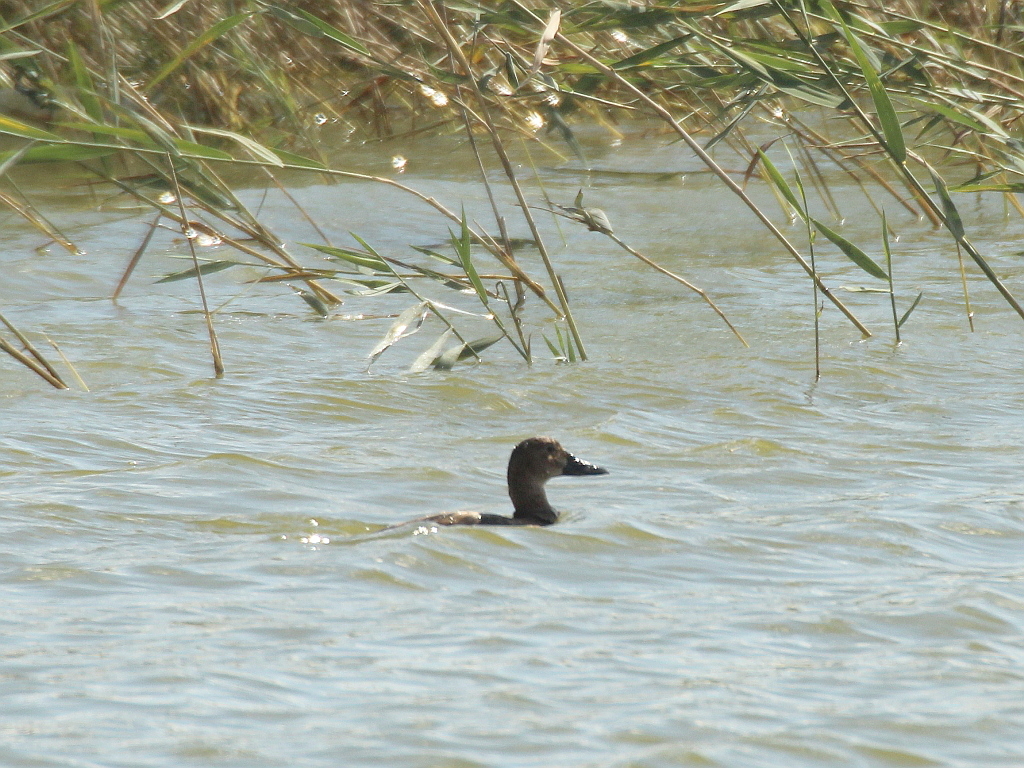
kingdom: Animalia
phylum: Chordata
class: Aves
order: Anseriformes
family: Anatidae
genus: Aythya
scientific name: Aythya ferina
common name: Common pochard
